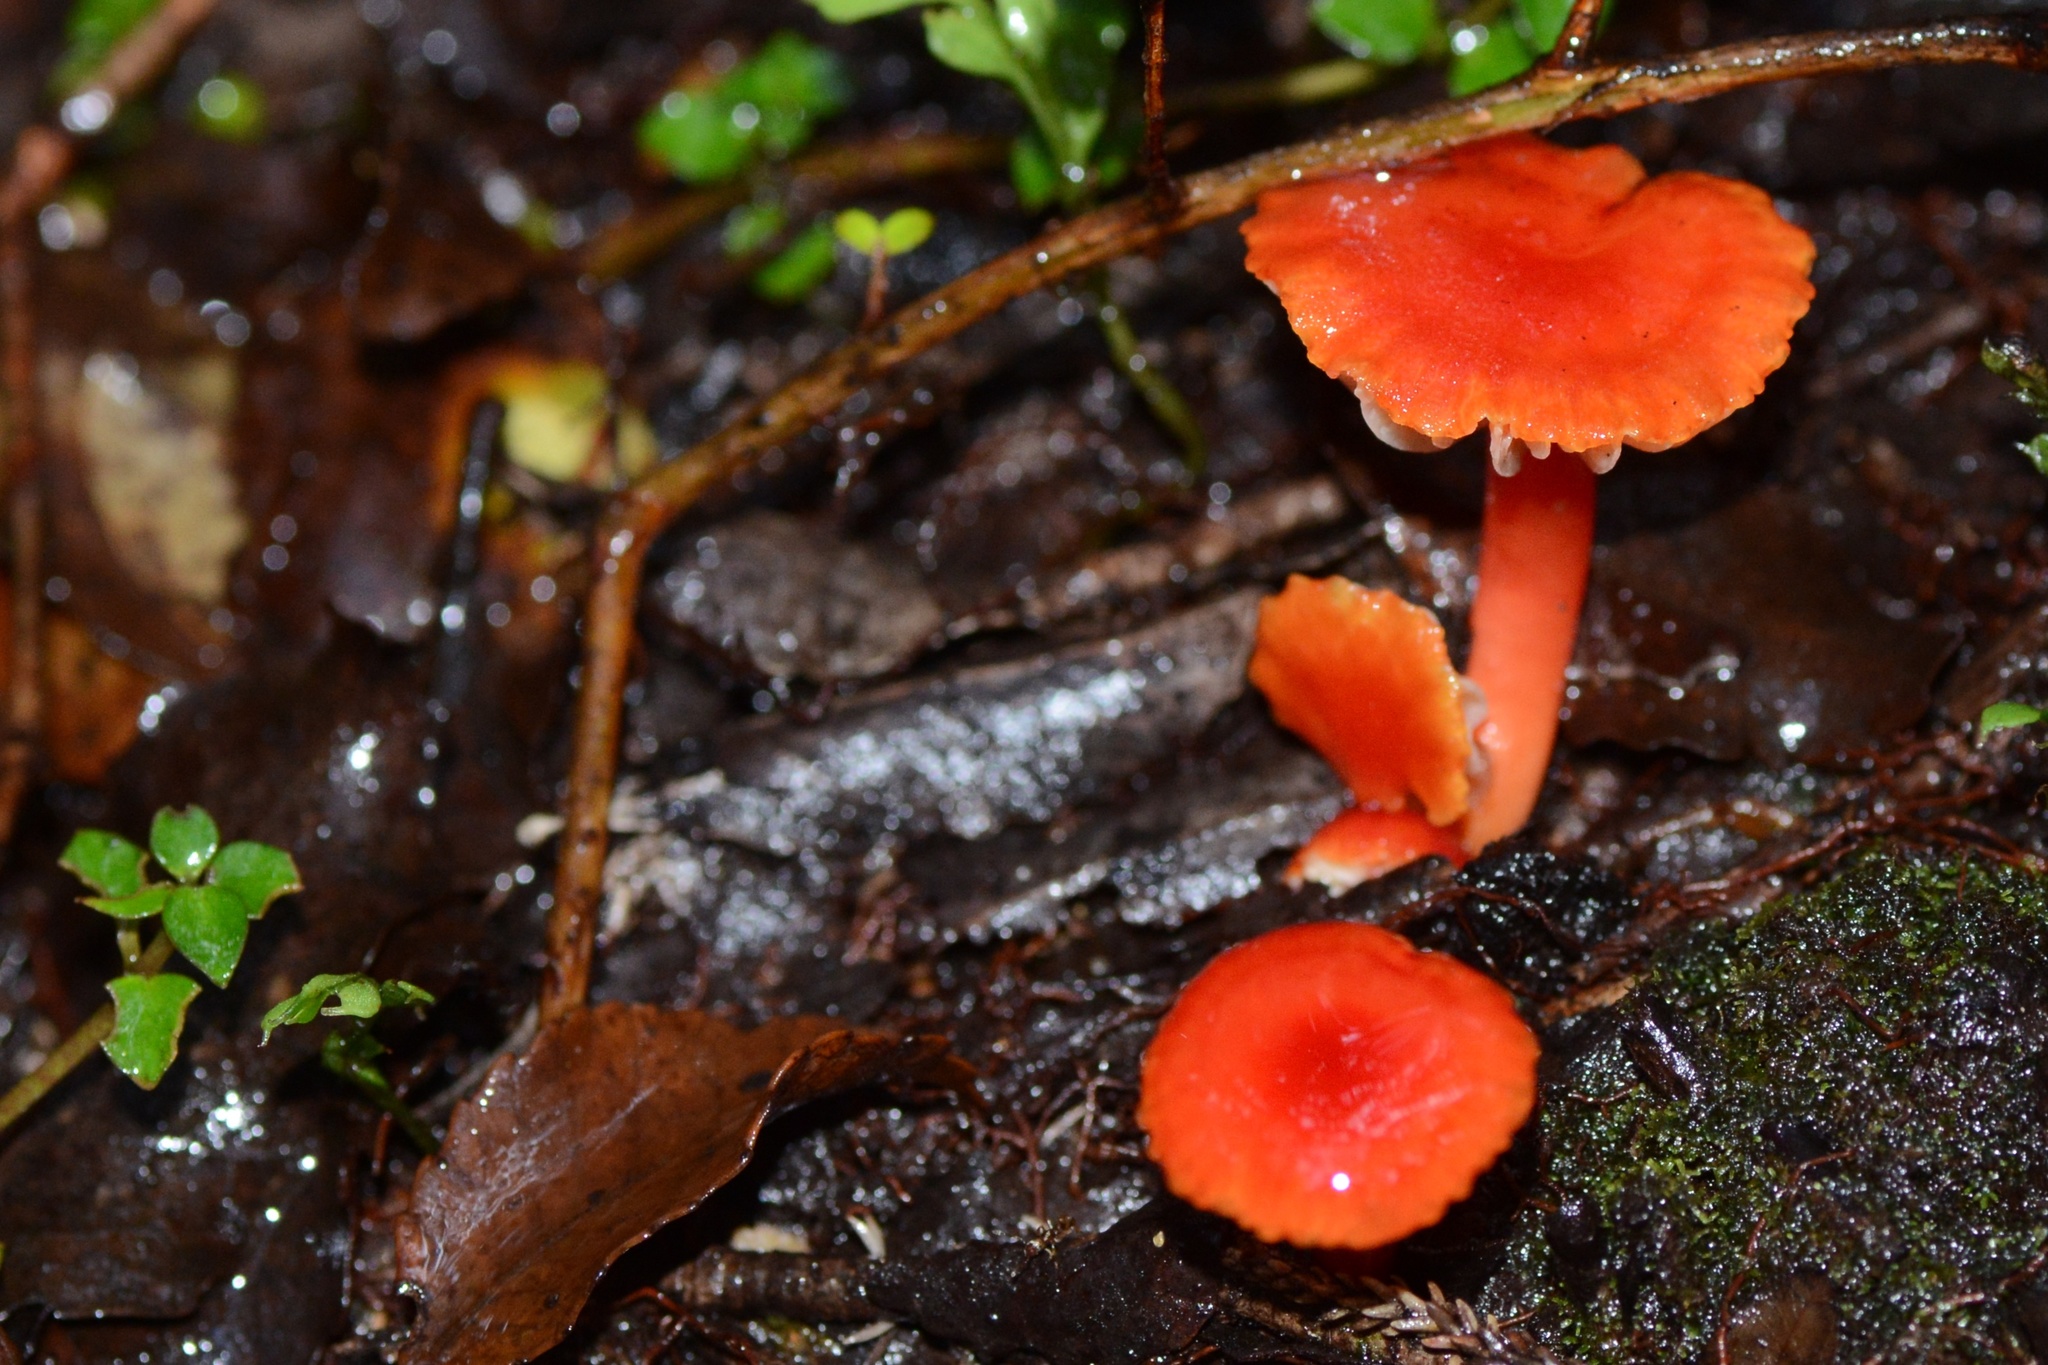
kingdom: Fungi
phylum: Basidiomycota
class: Agaricomycetes
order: Agaricales
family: Hygrophoraceae
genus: Hygrocybe
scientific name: Hygrocybe
